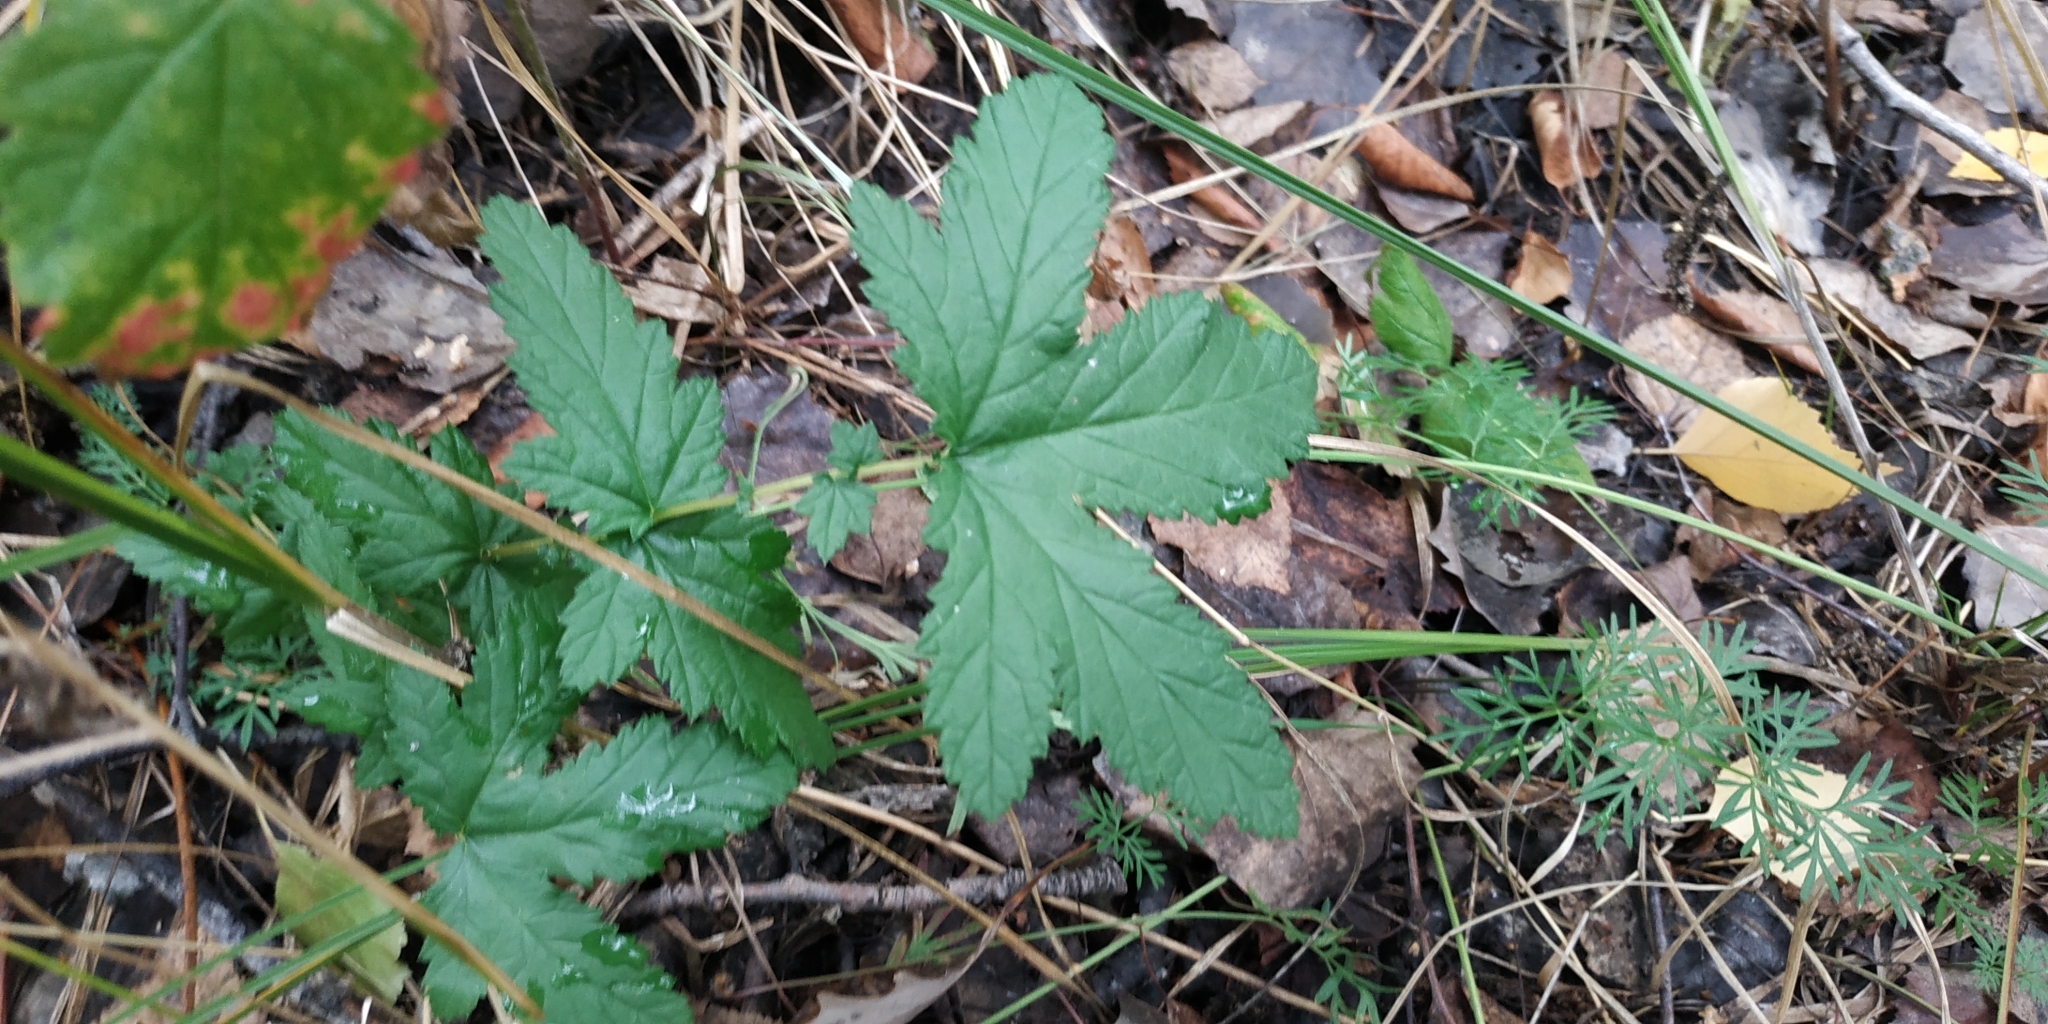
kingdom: Plantae
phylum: Tracheophyta
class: Magnoliopsida
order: Rosales
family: Rosaceae
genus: Filipendula
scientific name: Filipendula ulmaria
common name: Meadowsweet
